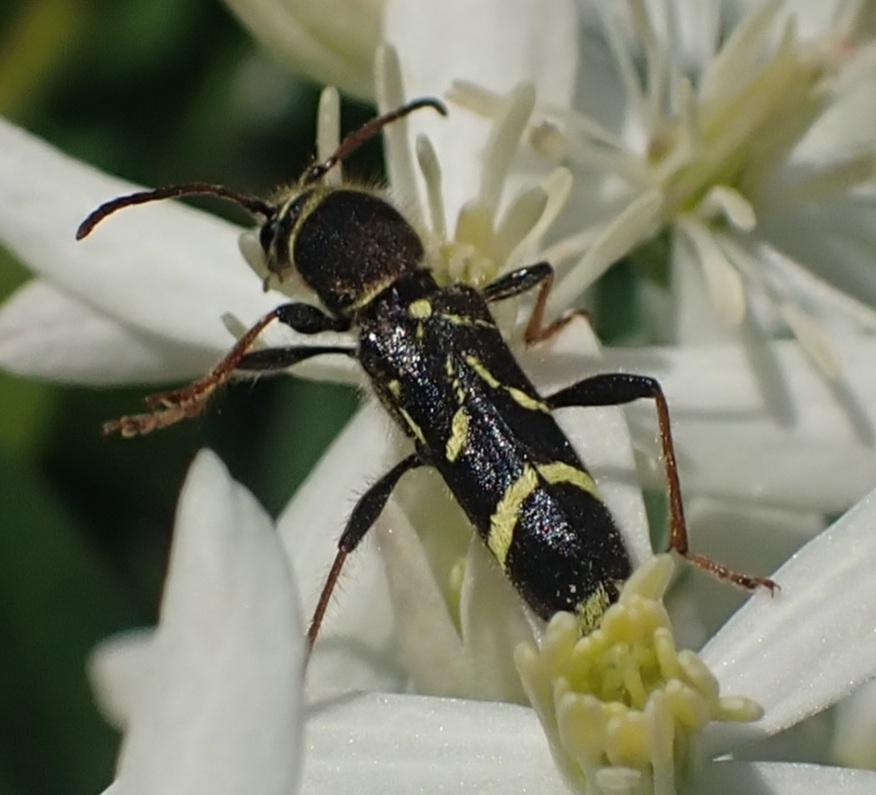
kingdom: Animalia
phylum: Arthropoda
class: Insecta
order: Coleoptera
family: Cerambycidae
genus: Cyrtoclytus
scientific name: Cyrtoclytus capra
